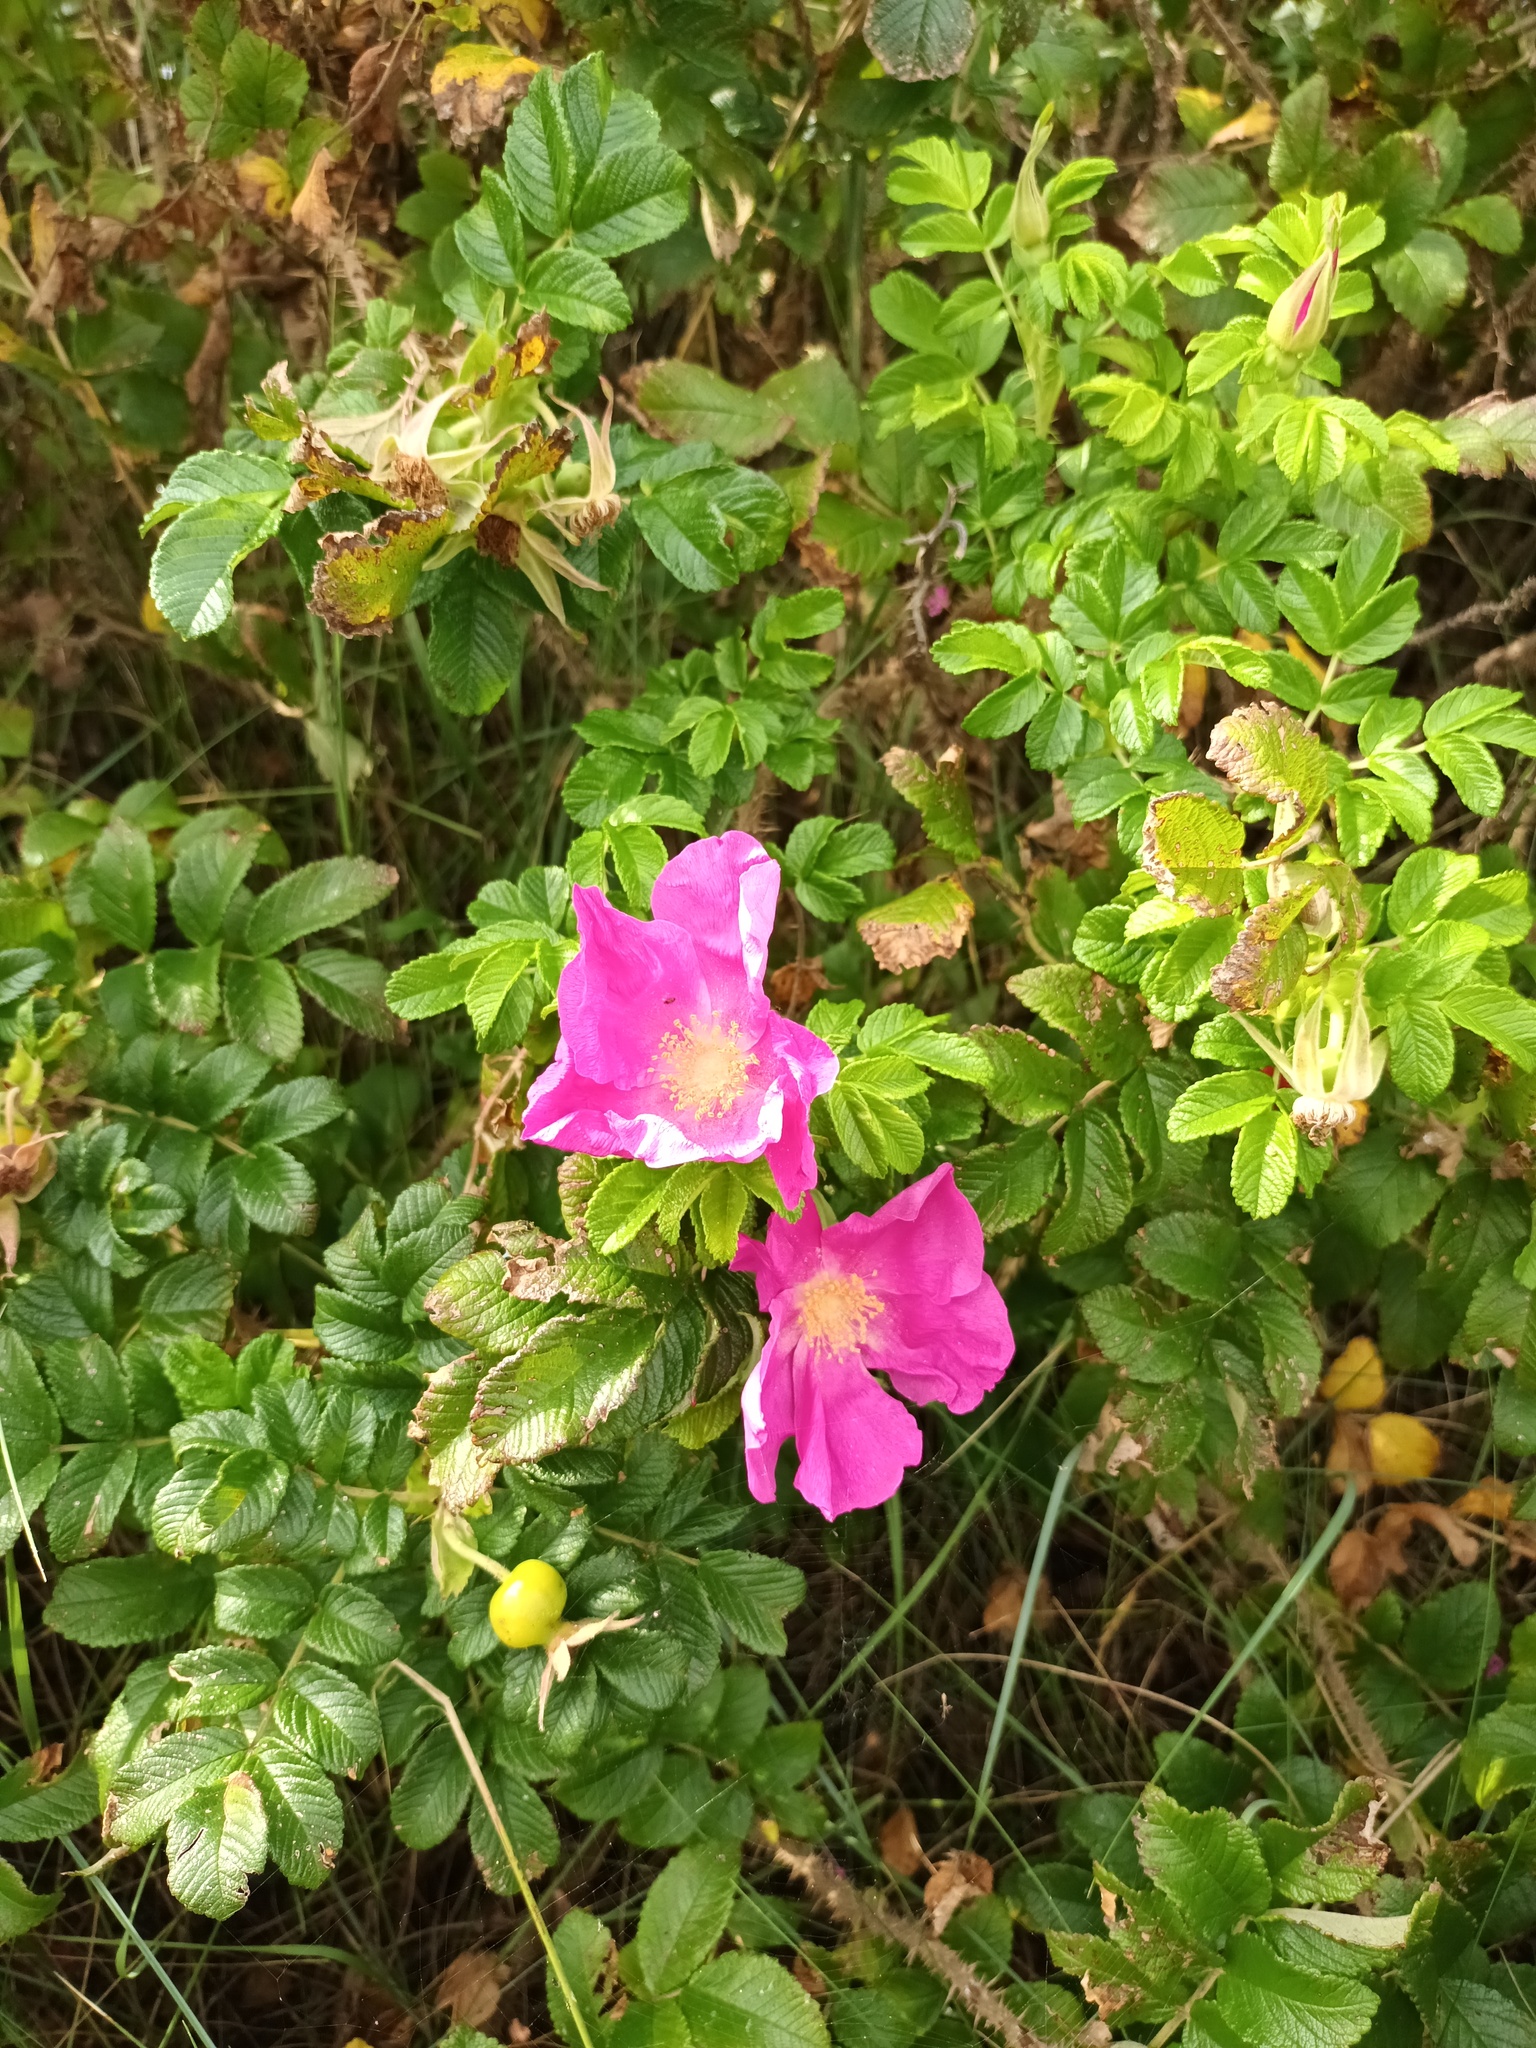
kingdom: Plantae
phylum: Tracheophyta
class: Magnoliopsida
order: Rosales
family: Rosaceae
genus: Rosa
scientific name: Rosa rugosa
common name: Japanese rose
